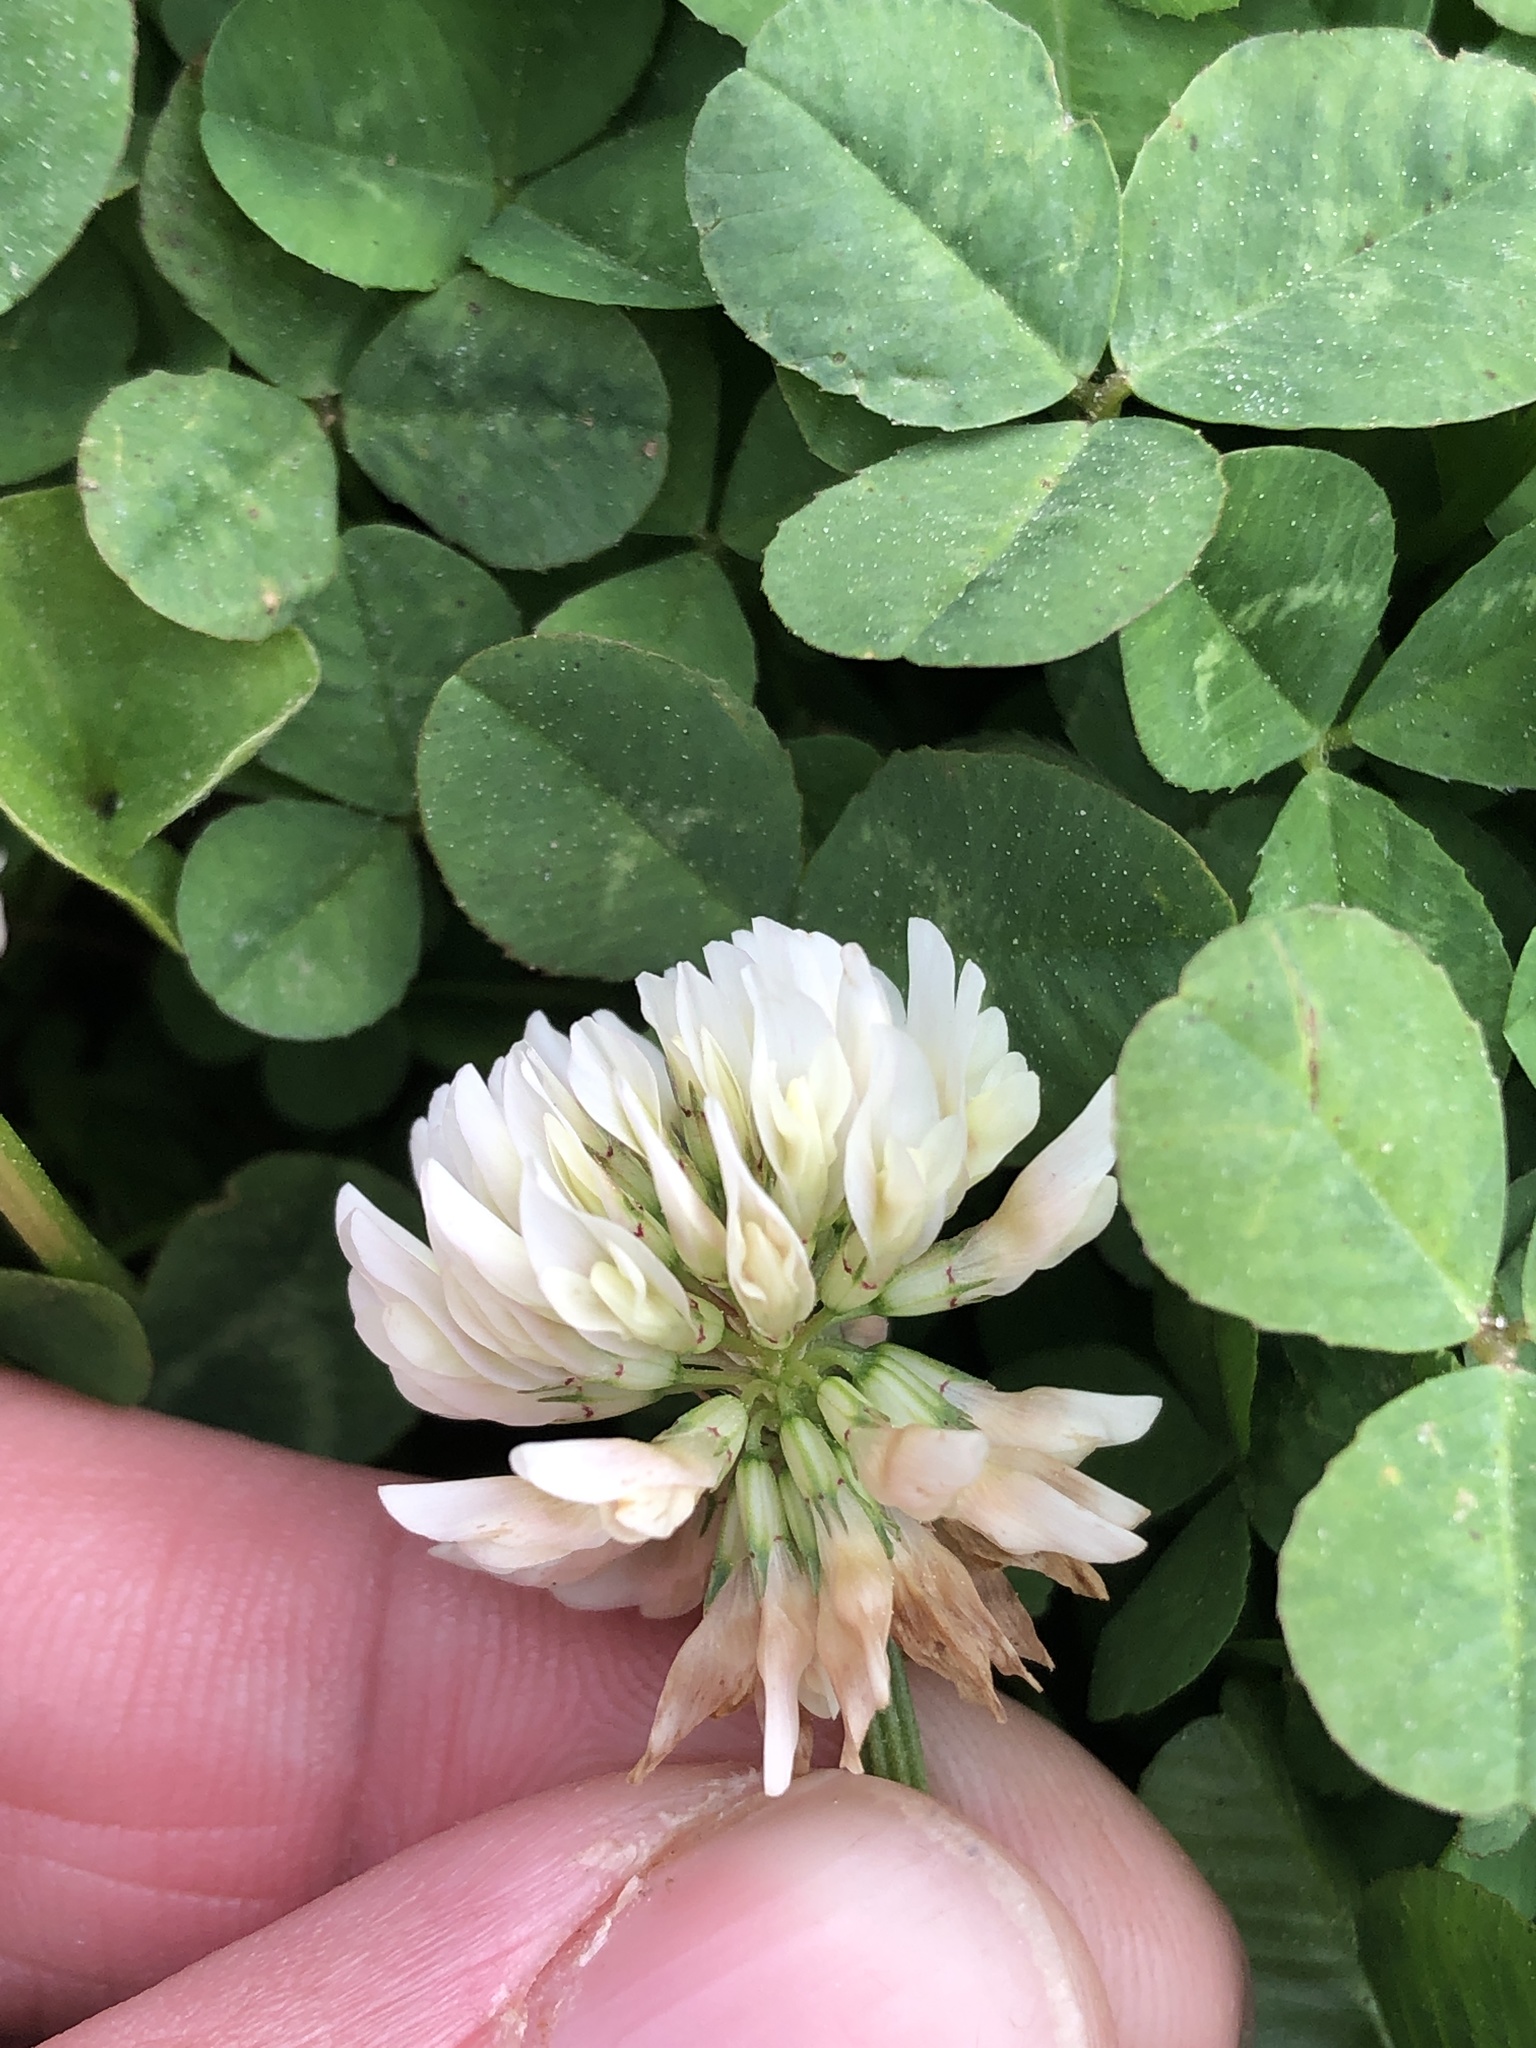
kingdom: Plantae
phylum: Tracheophyta
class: Magnoliopsida
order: Fabales
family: Fabaceae
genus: Trifolium
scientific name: Trifolium repens
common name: White clover
